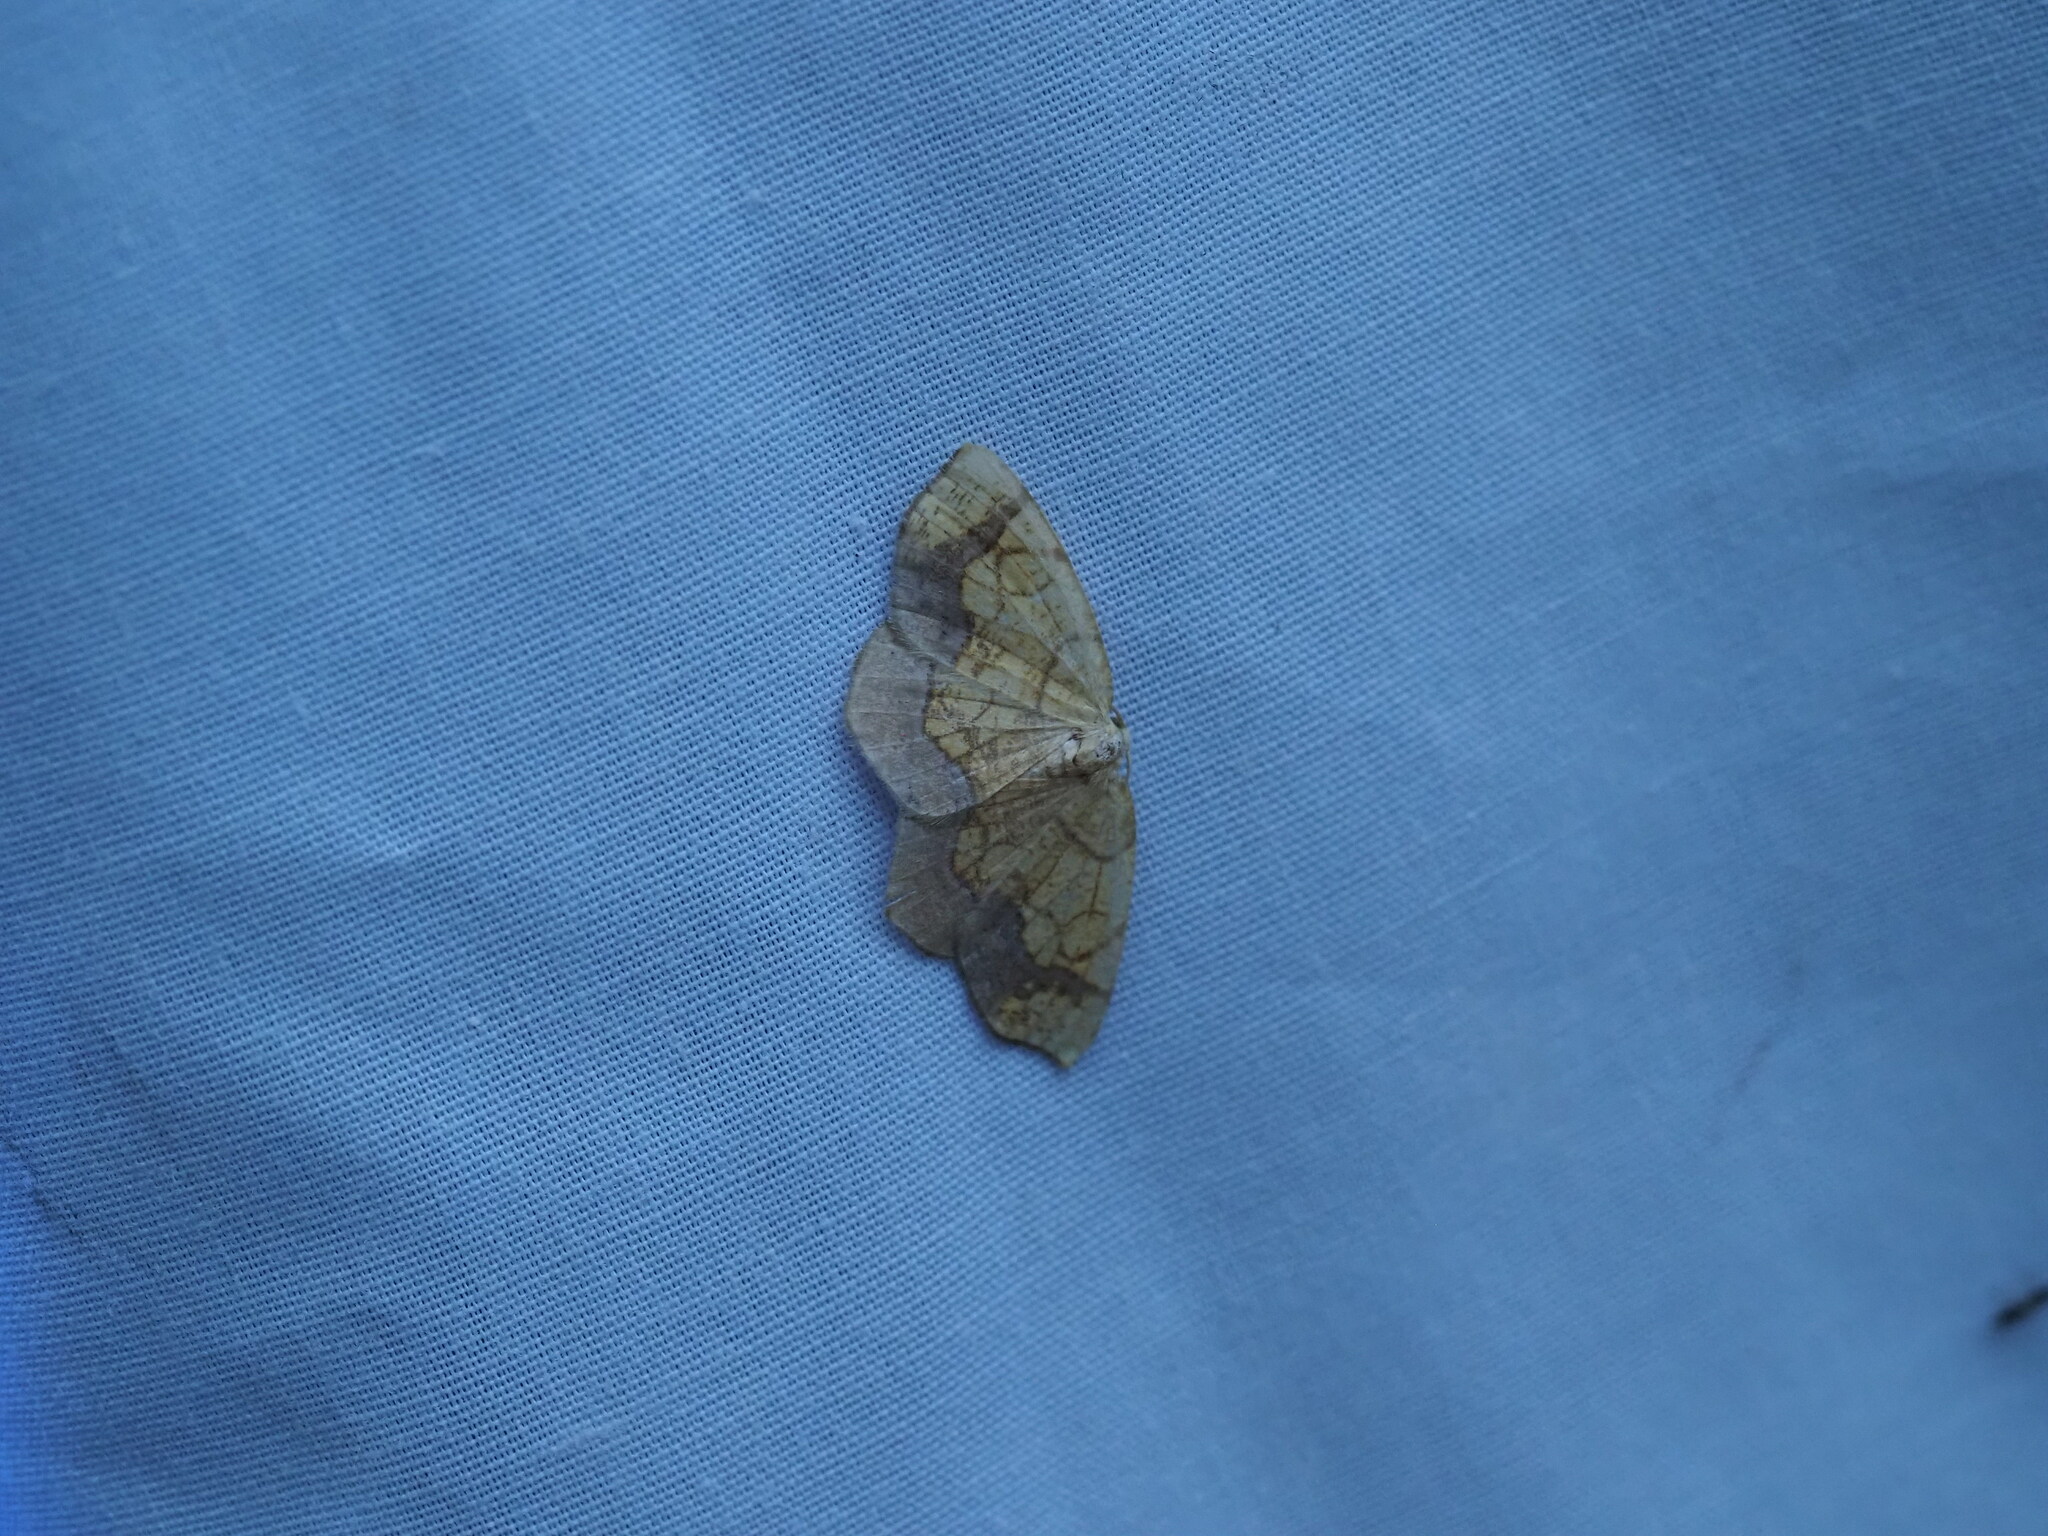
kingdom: Animalia
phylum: Arthropoda
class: Insecta
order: Lepidoptera
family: Geometridae
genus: Nematocampa
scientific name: Nematocampa resistaria
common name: Horned spanworm moth
